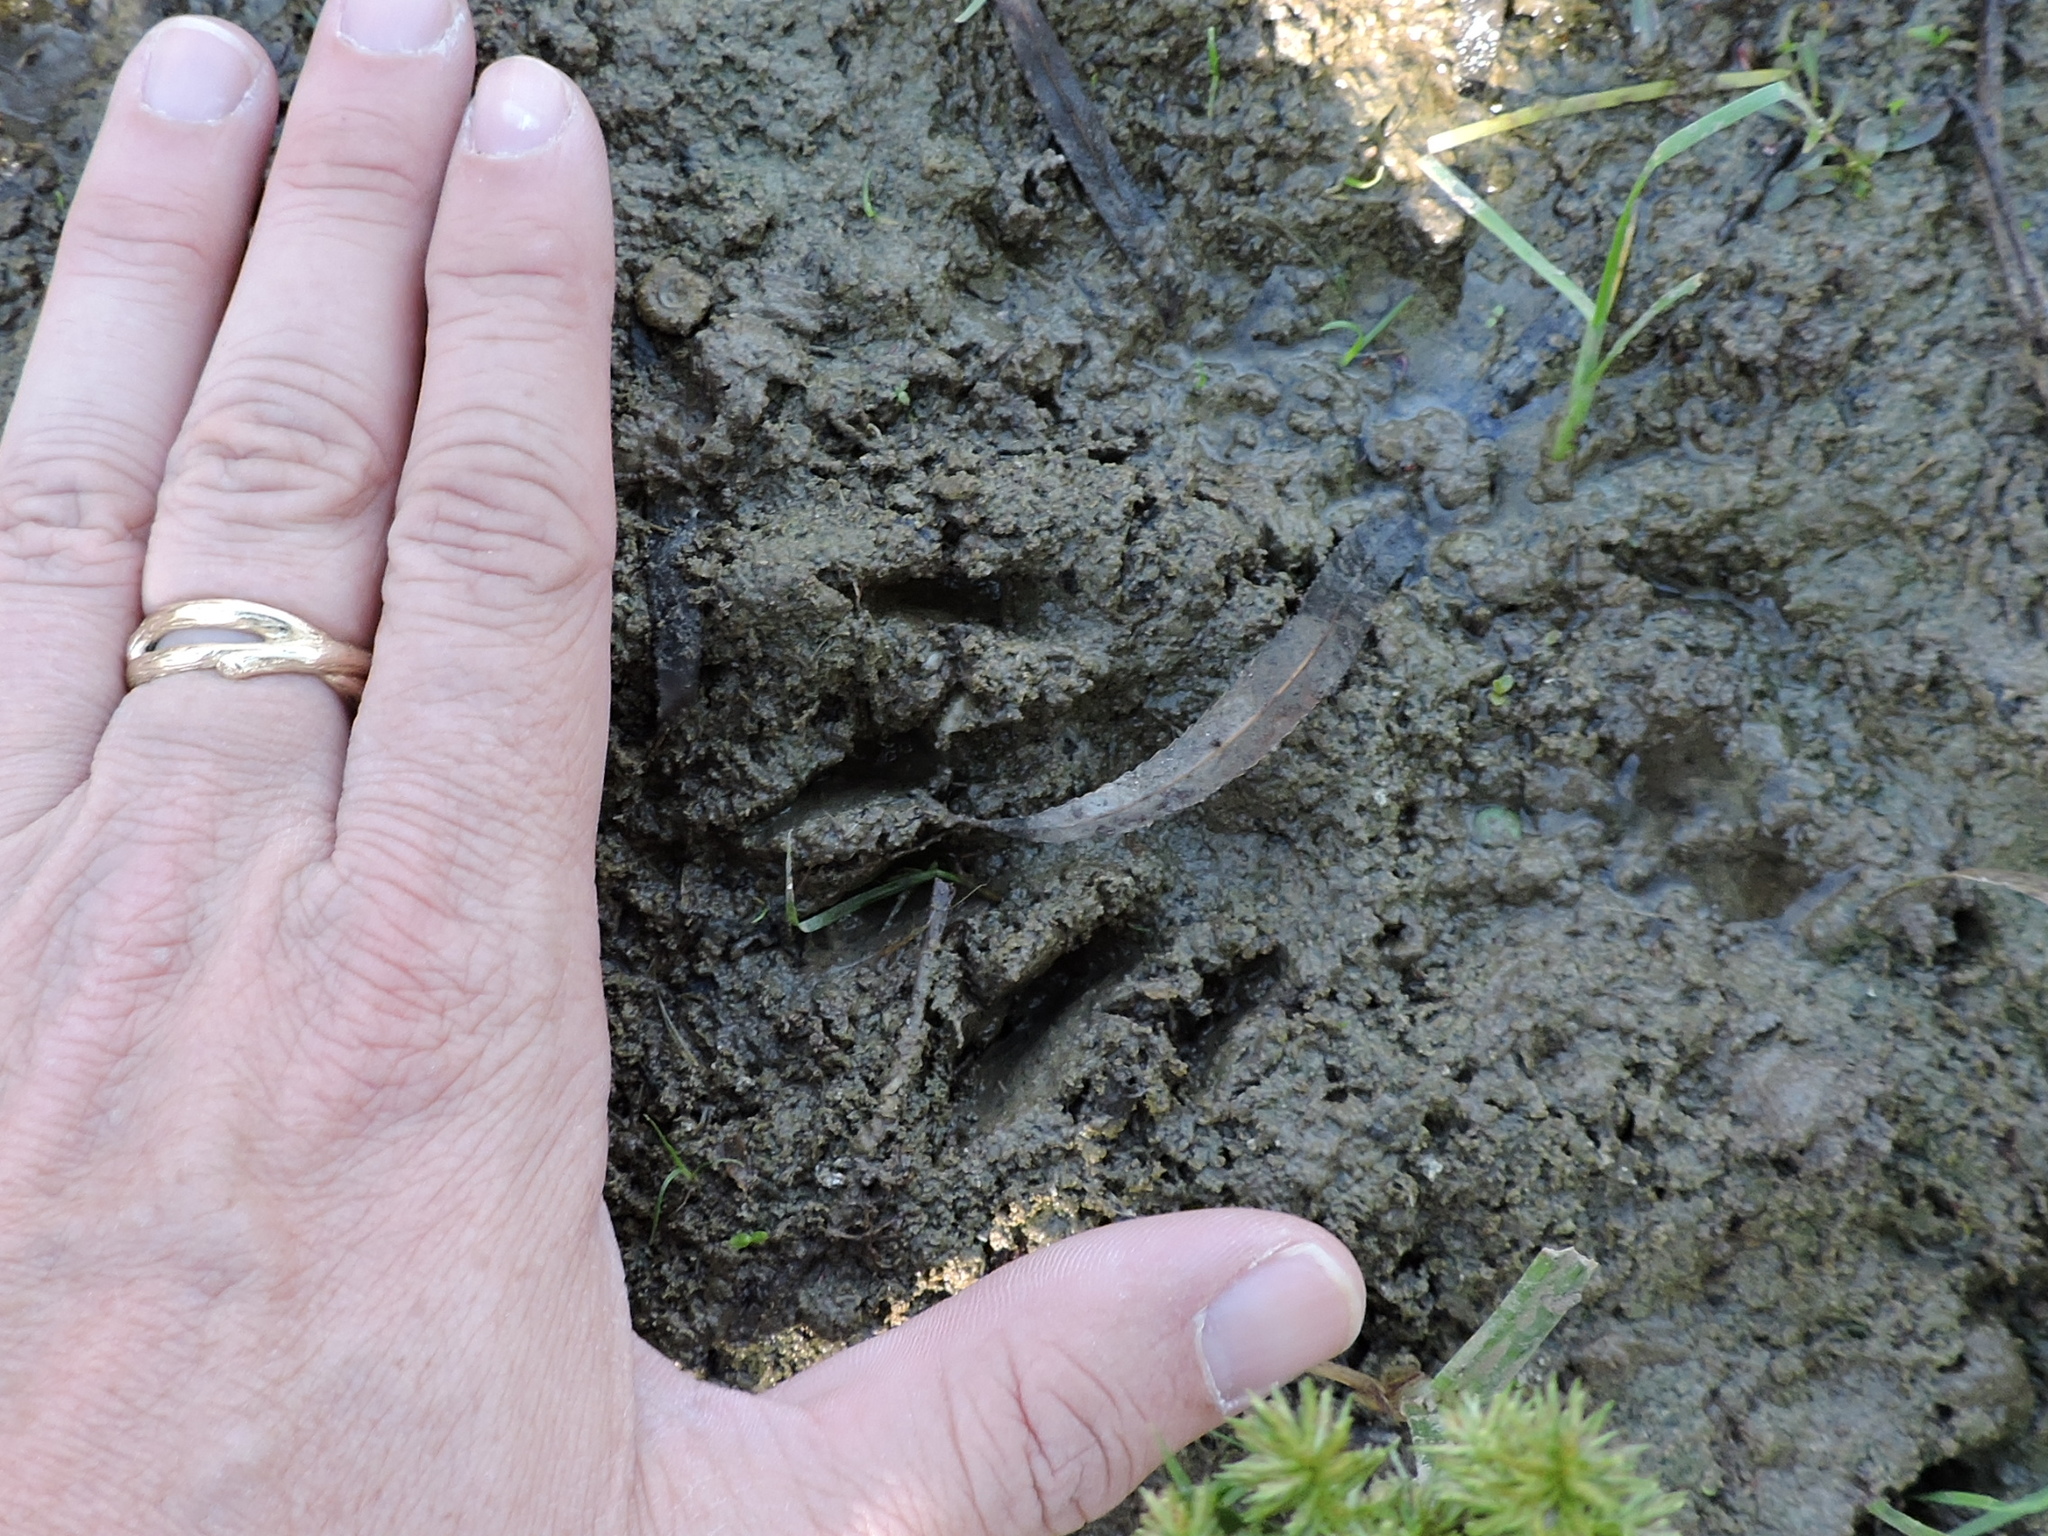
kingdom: Animalia
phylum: Chordata
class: Mammalia
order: Carnivora
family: Procyonidae
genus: Procyon
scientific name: Procyon lotor
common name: Raccoon
